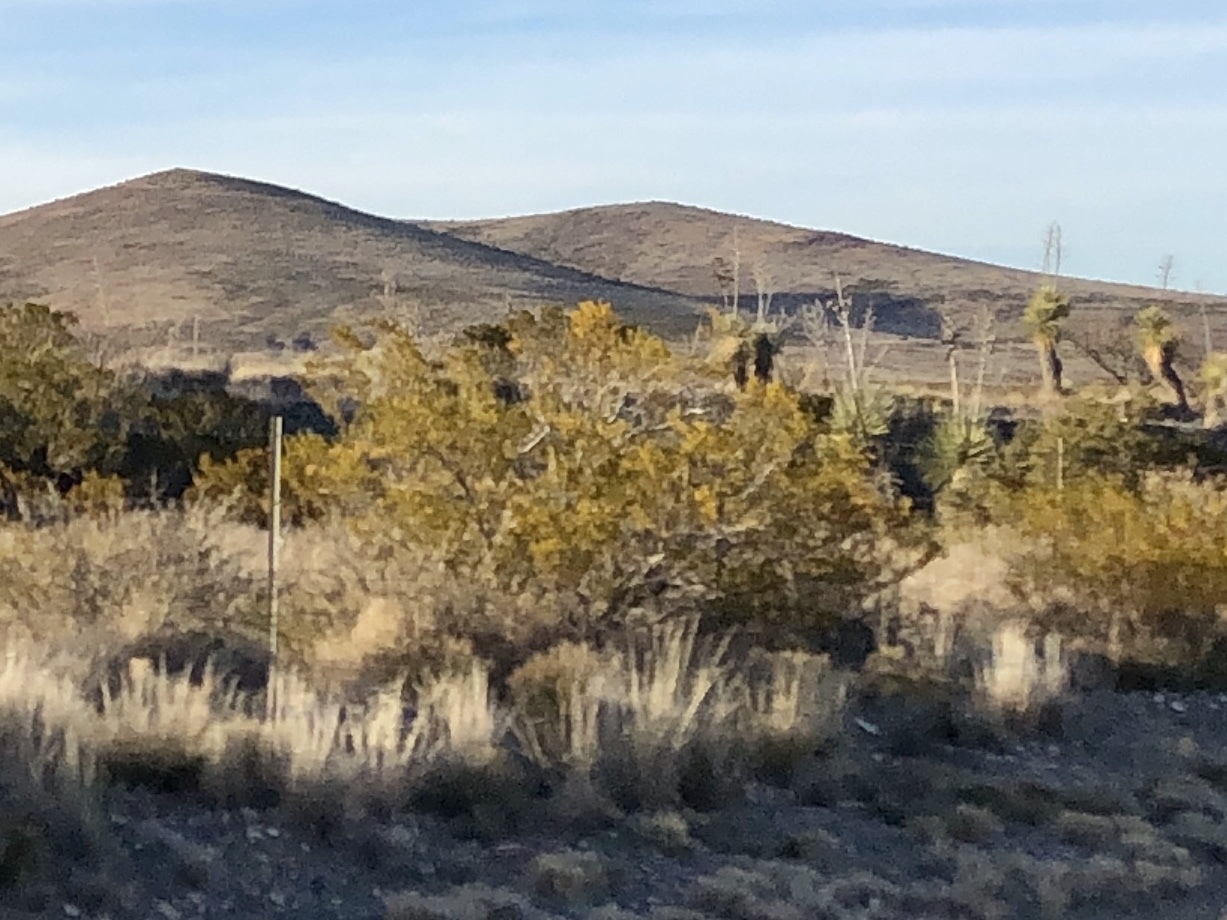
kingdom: Plantae
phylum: Tracheophyta
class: Magnoliopsida
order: Zygophyllales
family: Zygophyllaceae
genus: Larrea
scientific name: Larrea tridentata
